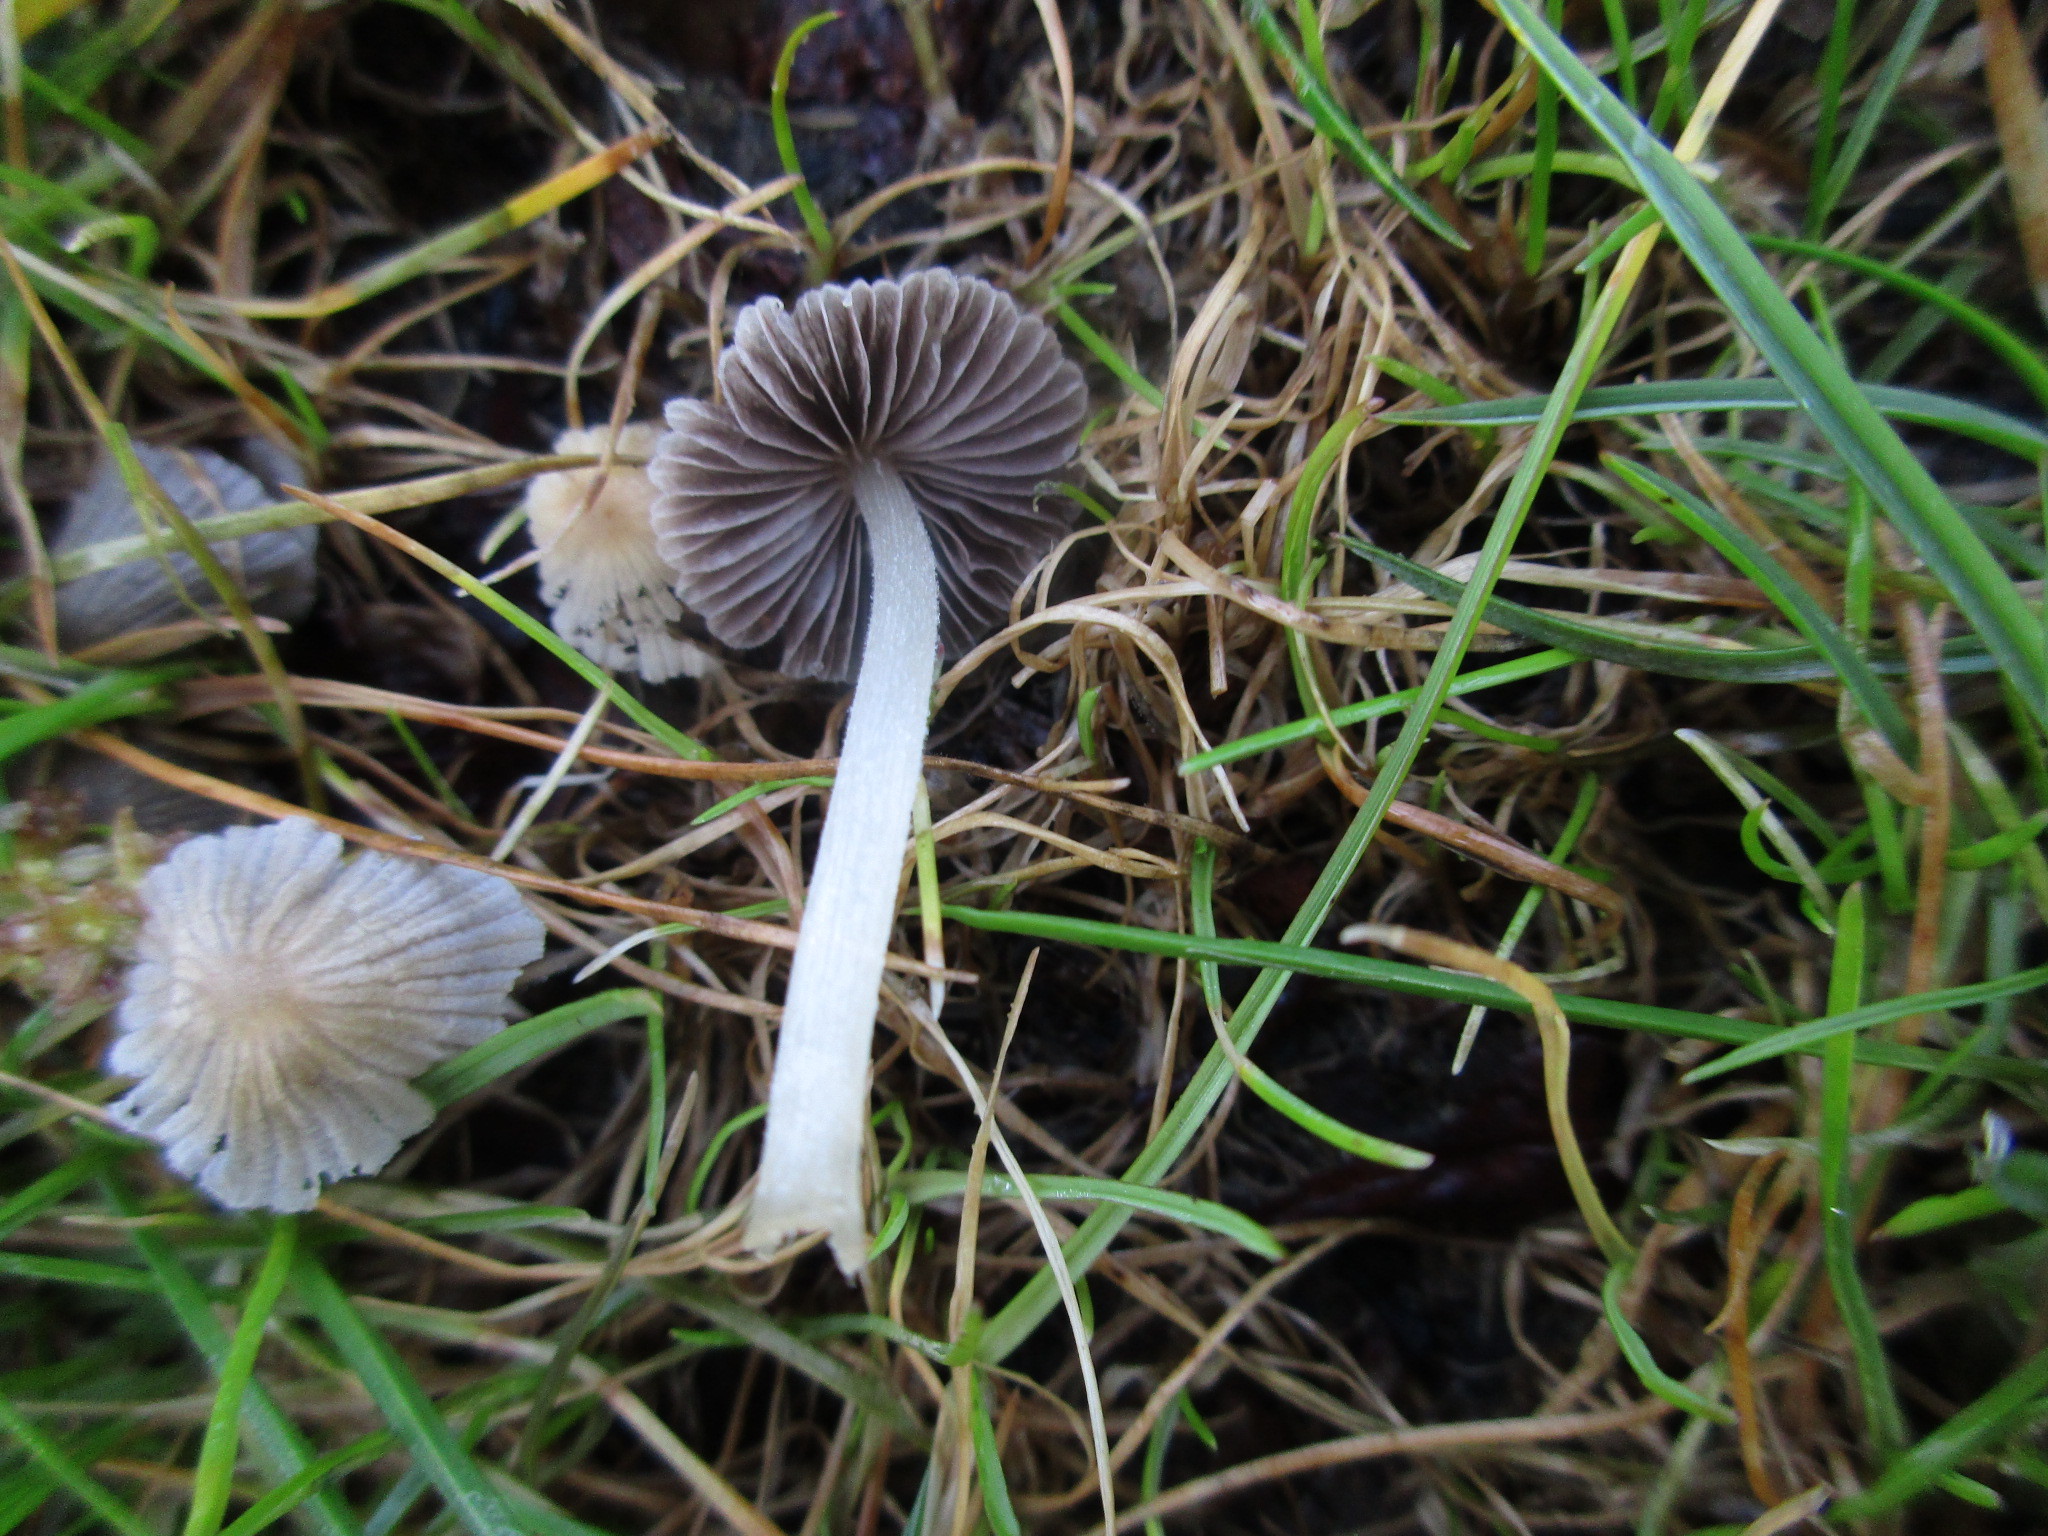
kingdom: Fungi
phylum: Basidiomycota
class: Agaricomycetes
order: Agaricales
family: Psathyrellaceae
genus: Coprinellus
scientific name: Coprinellus disseminatus
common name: Fairies' bonnets
